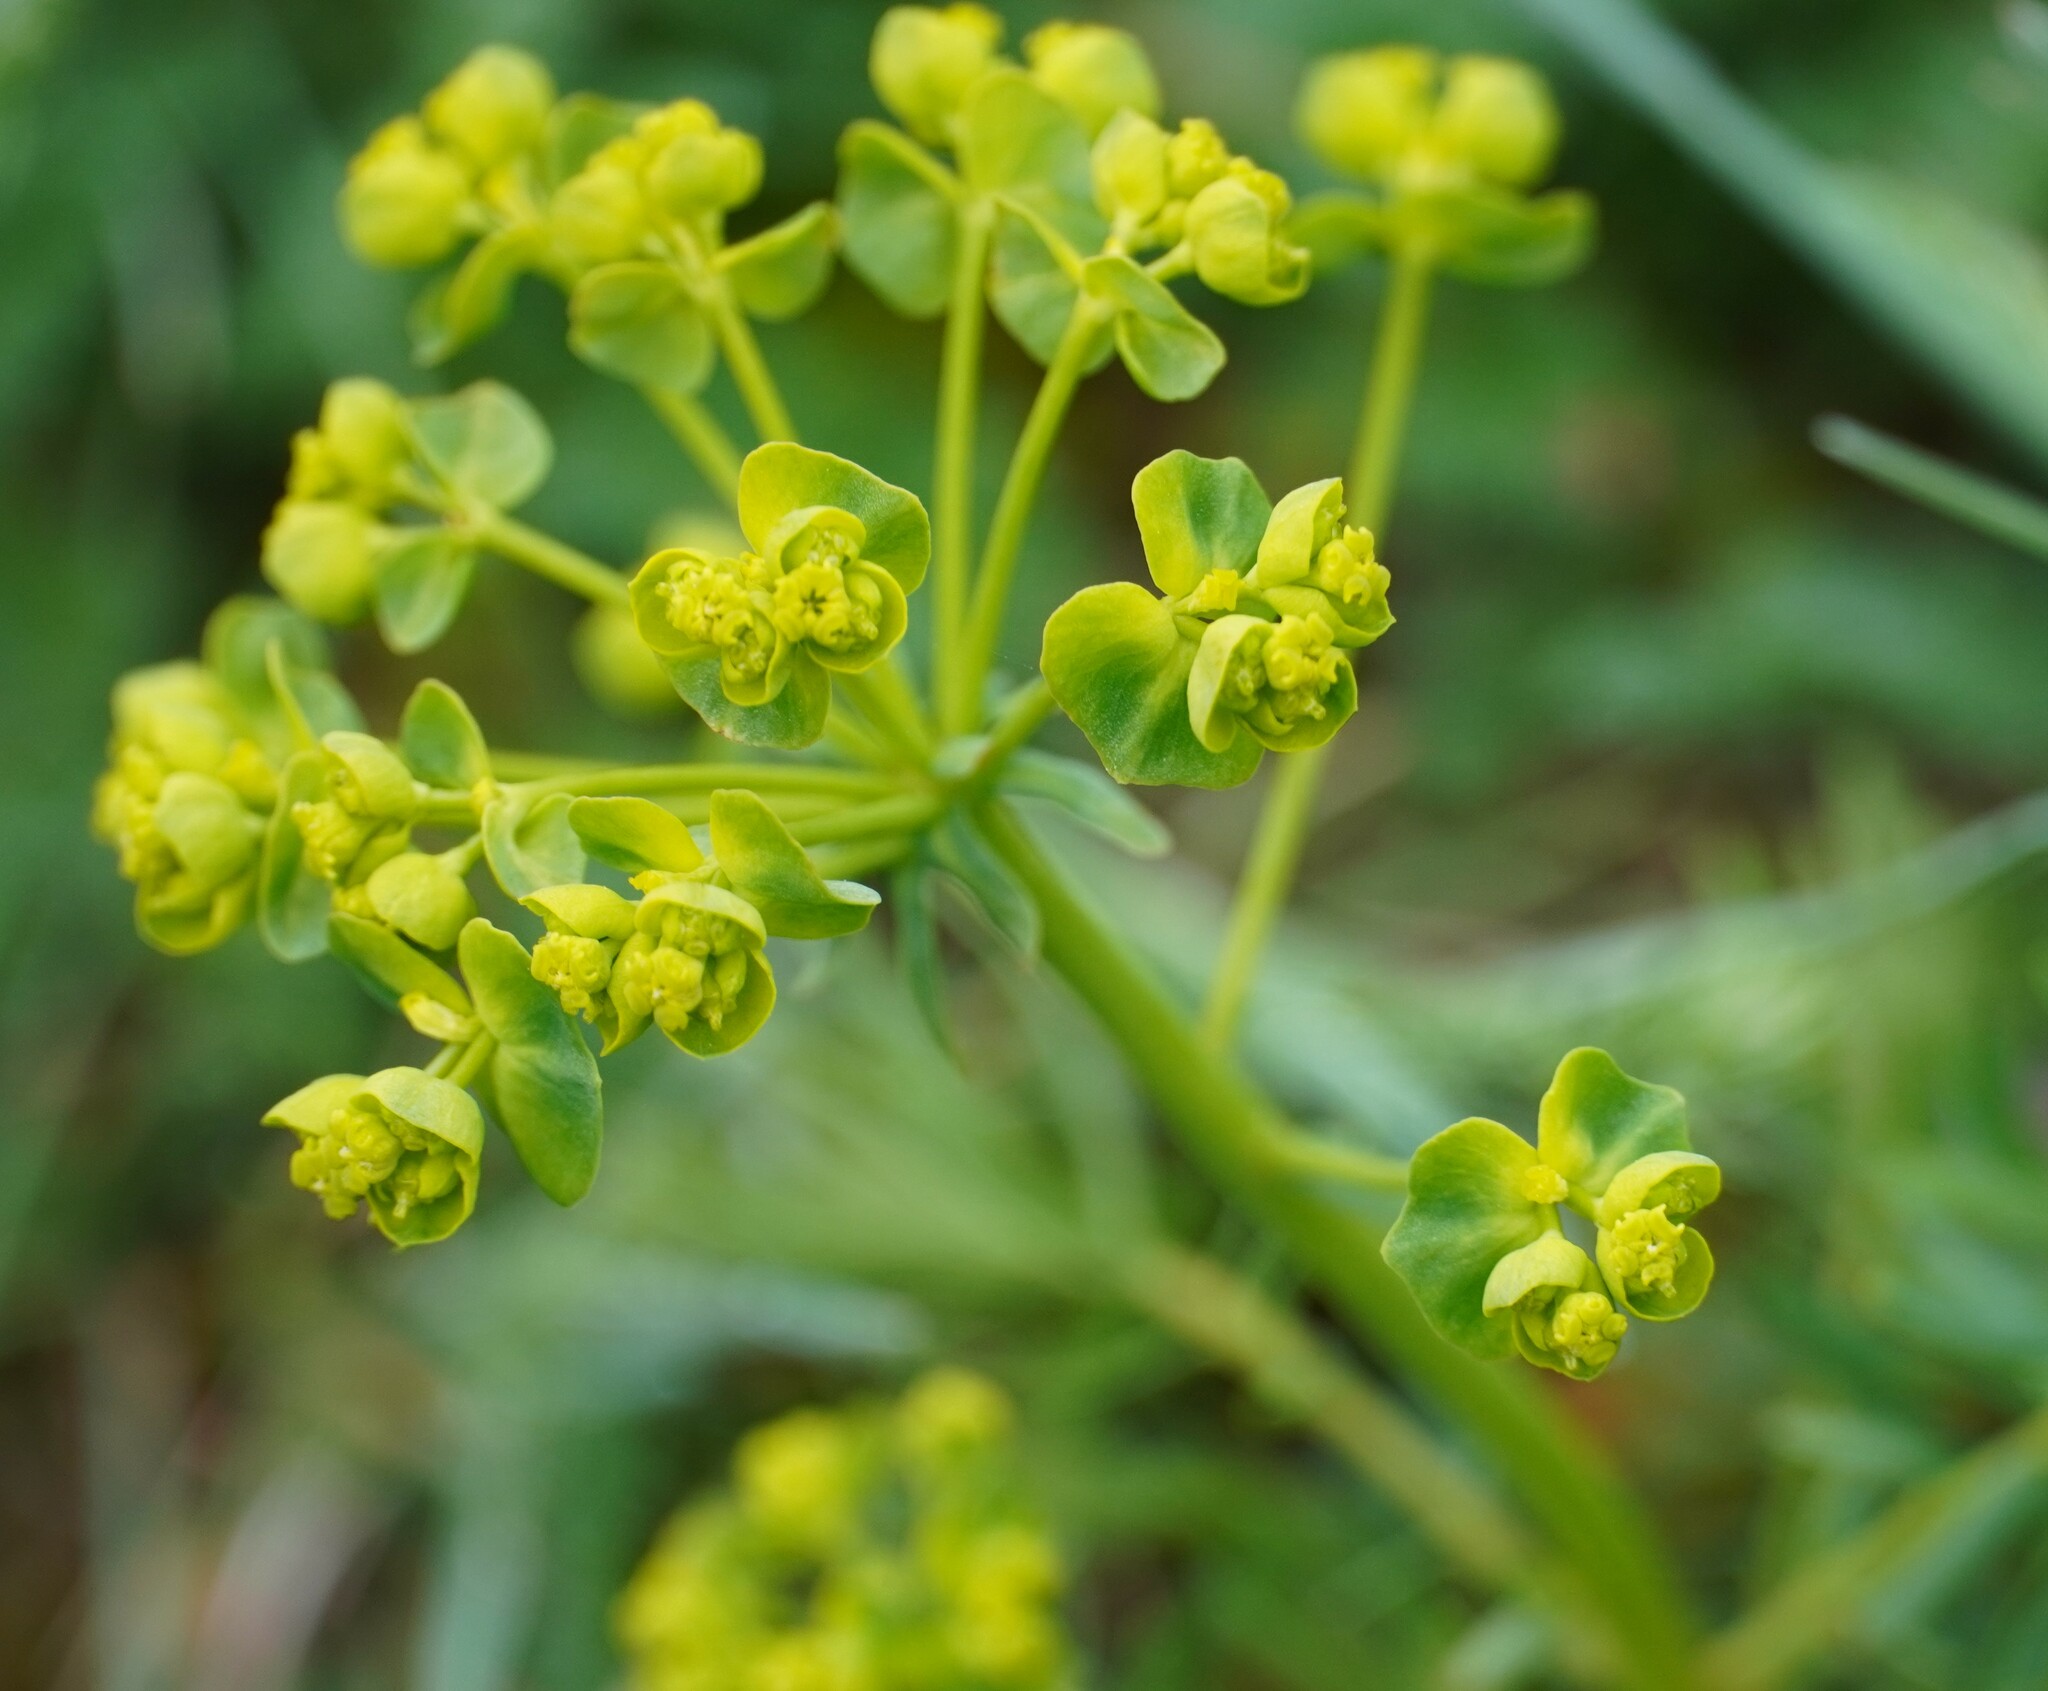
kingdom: Plantae
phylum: Tracheophyta
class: Magnoliopsida
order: Malpighiales
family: Euphorbiaceae
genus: Euphorbia
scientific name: Euphorbia cyparissias
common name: Cypress spurge
